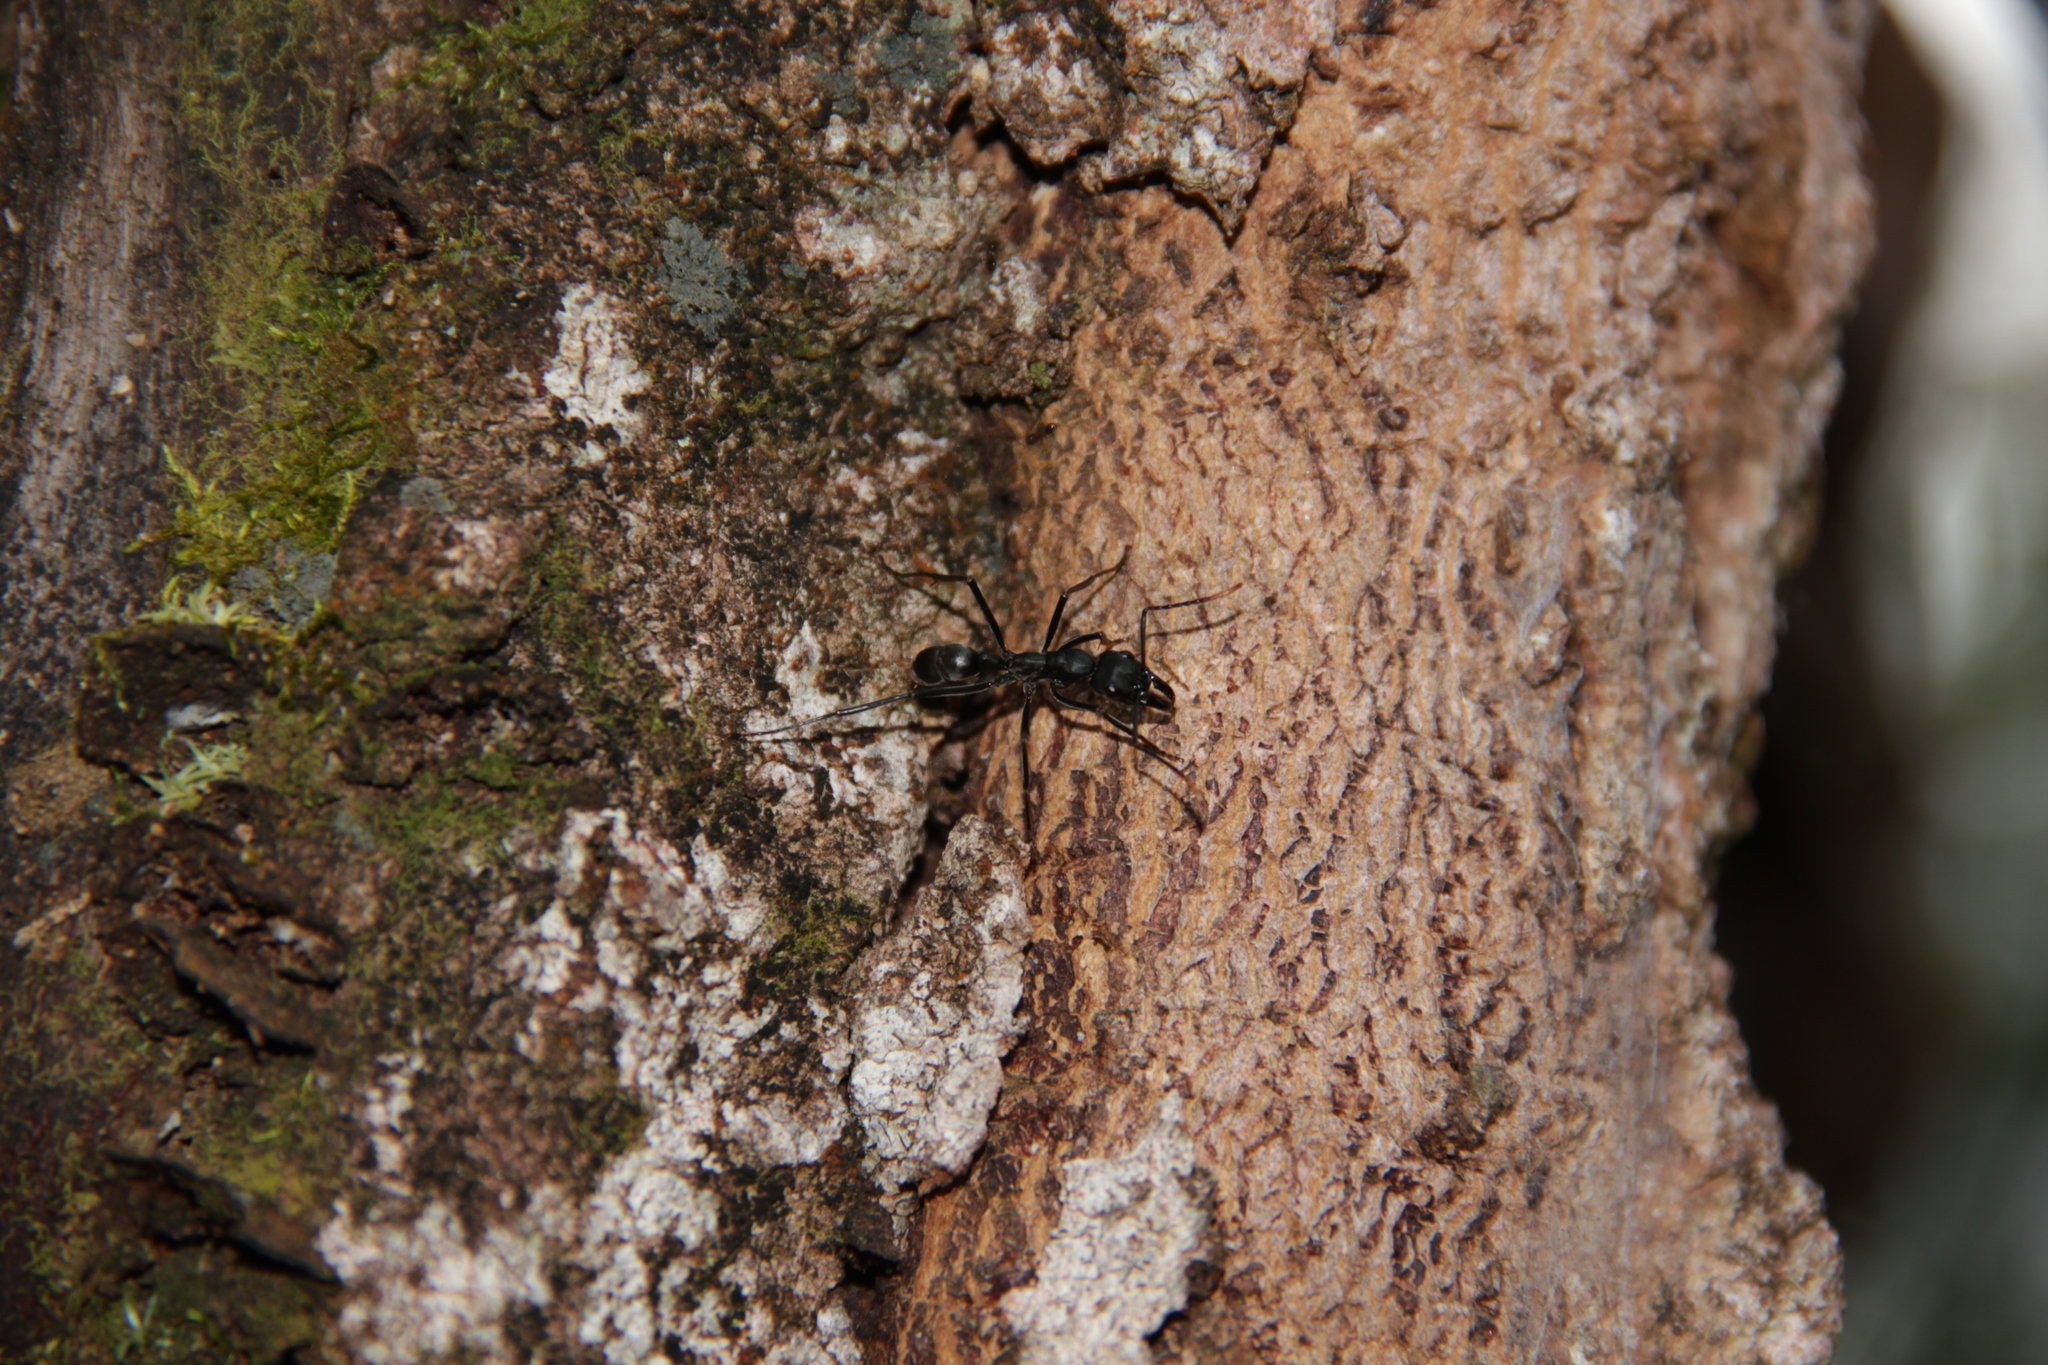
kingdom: Animalia
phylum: Arthropoda
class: Insecta
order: Hymenoptera
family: Formicidae
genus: Pachycondyla
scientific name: Pachycondyla apicalis
